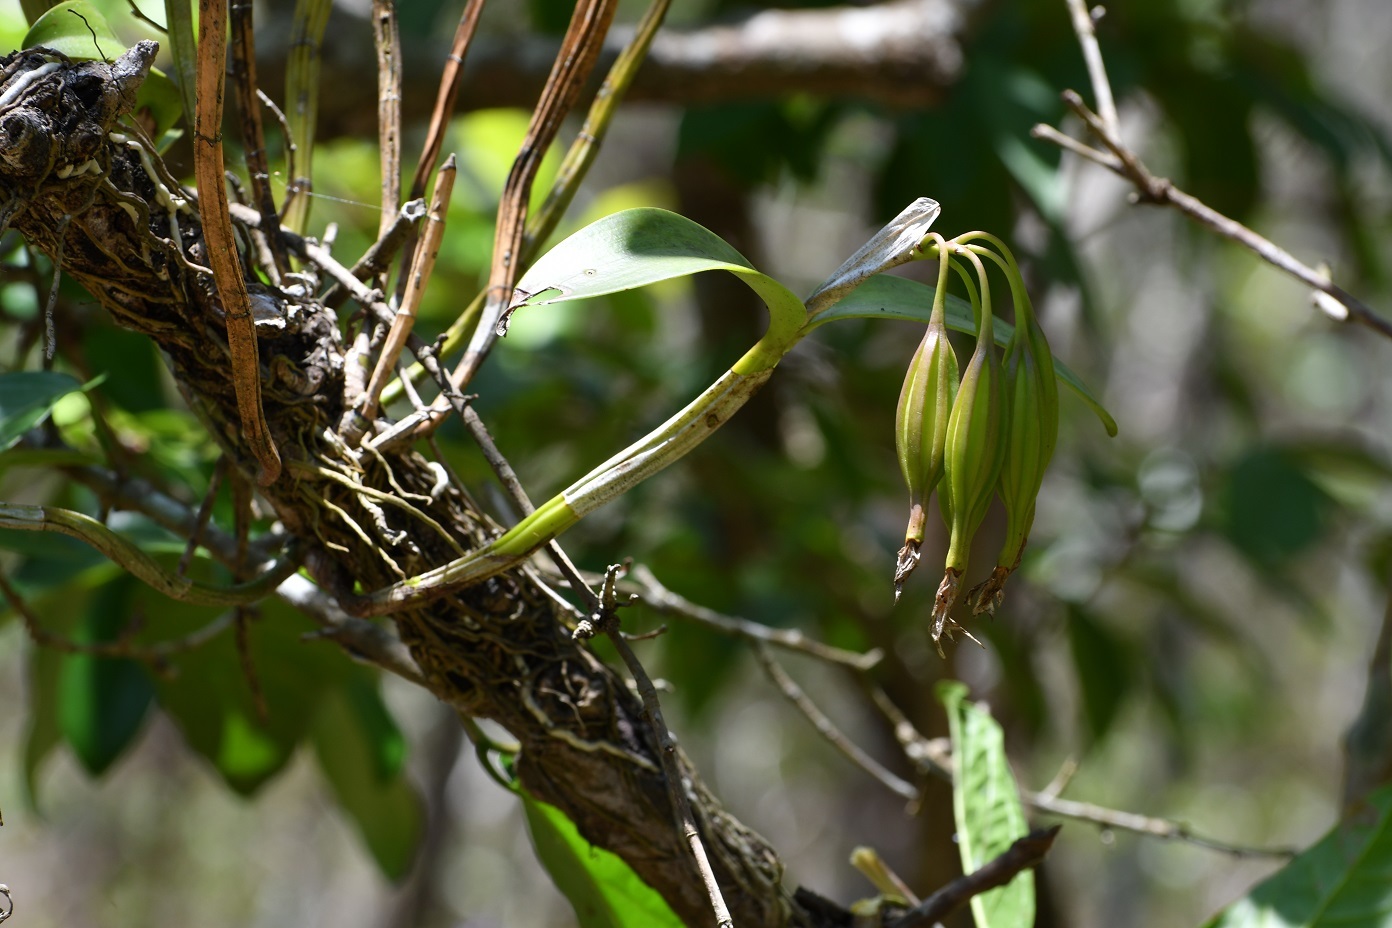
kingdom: Plantae
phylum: Tracheophyta
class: Liliopsida
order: Asparagales
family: Orchidaceae
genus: Guarianthe
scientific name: Guarianthe aurantiaca
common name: Orange cattleya
